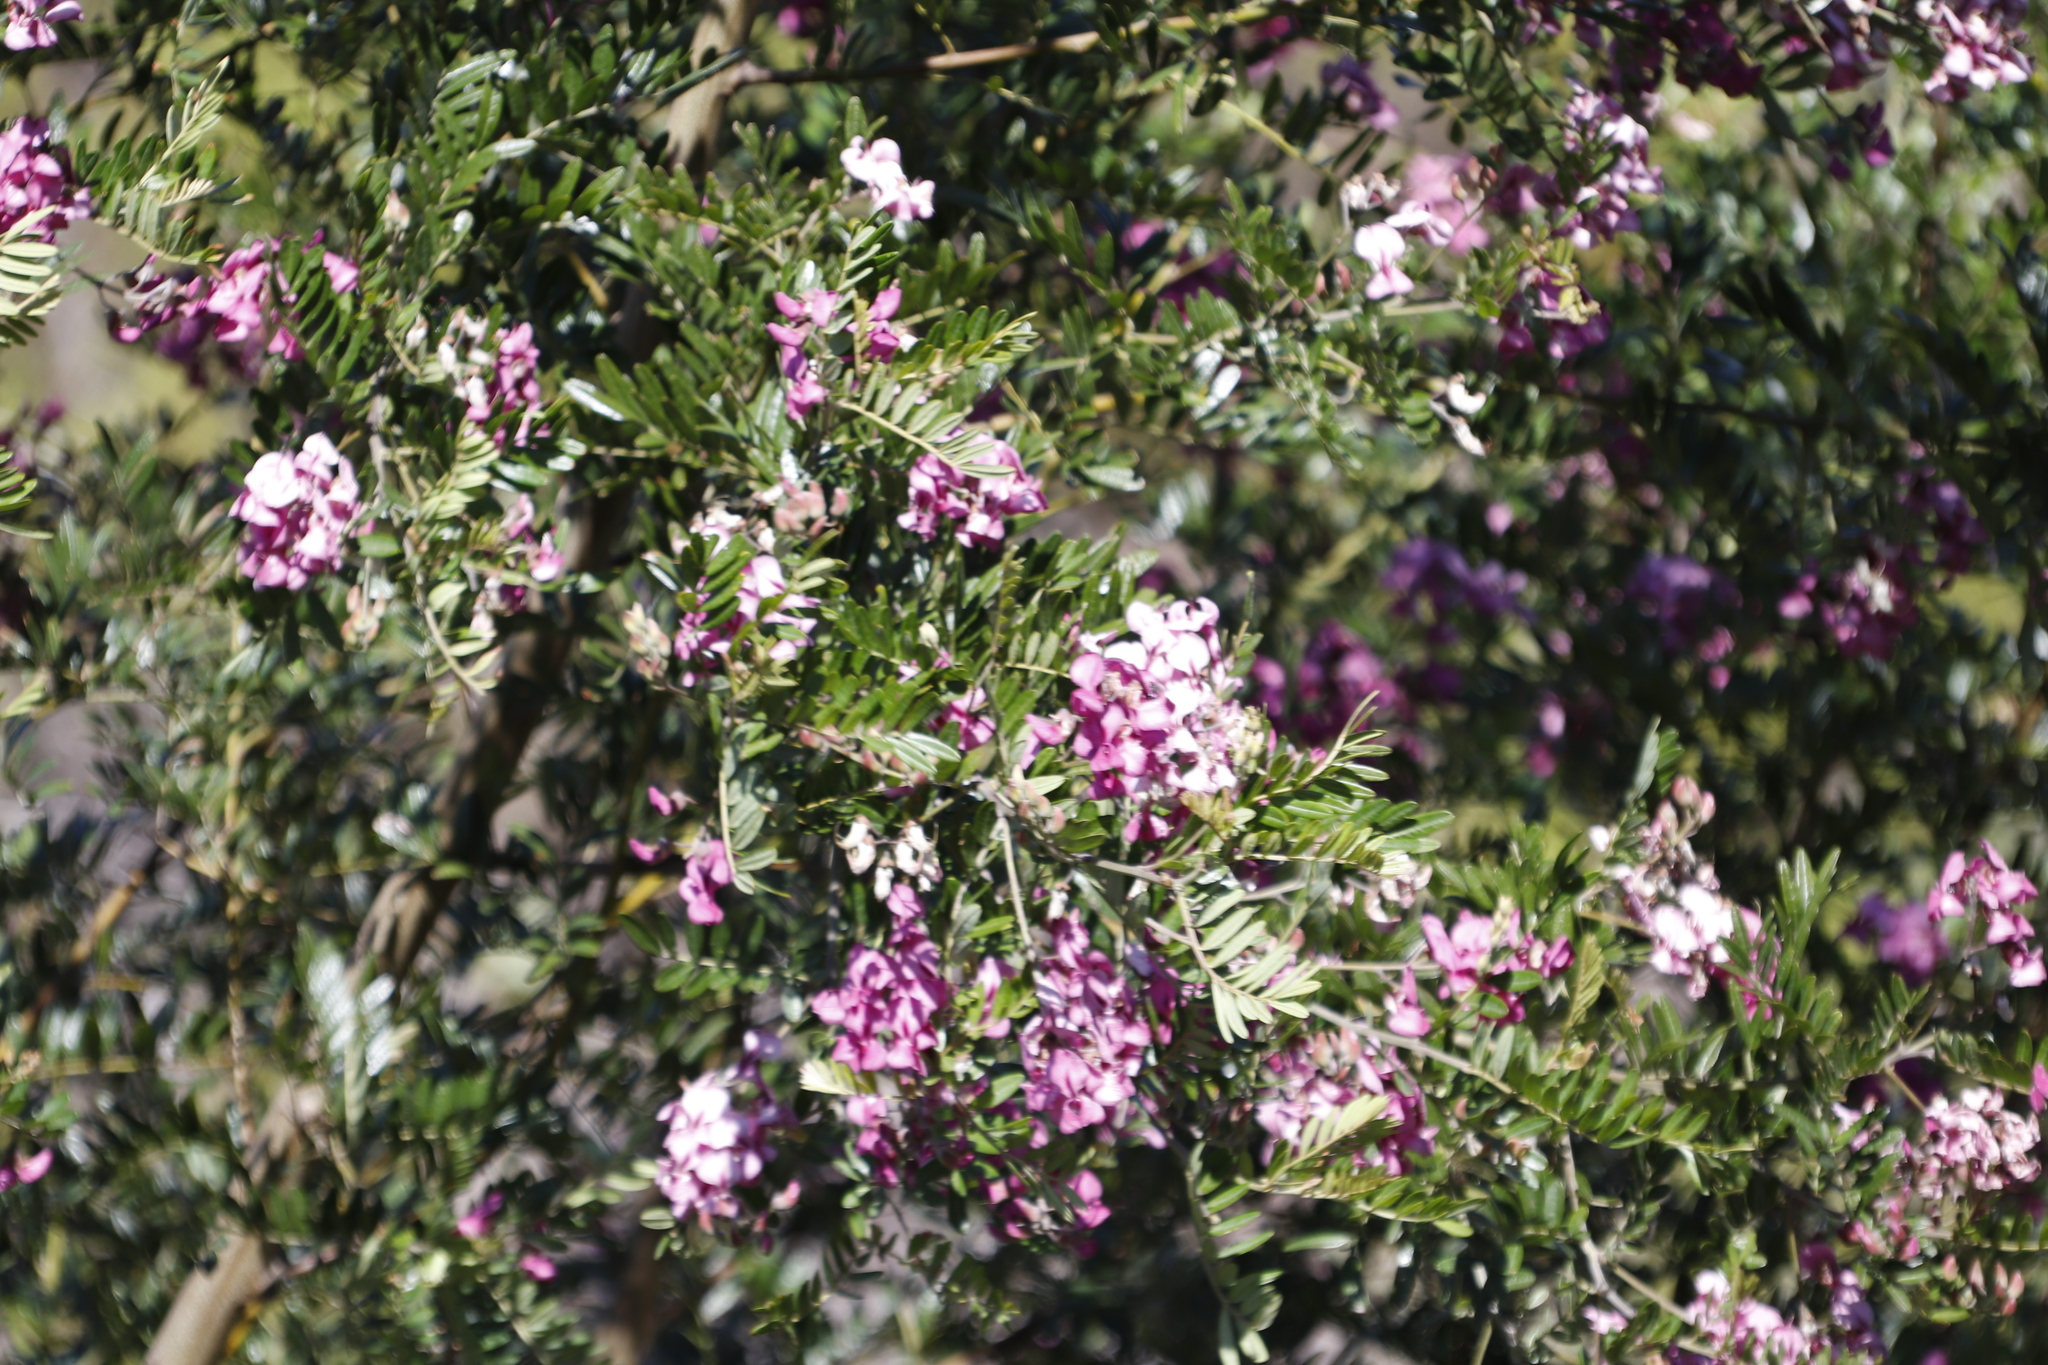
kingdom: Plantae
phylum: Tracheophyta
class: Magnoliopsida
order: Fabales
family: Fabaceae
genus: Virgilia
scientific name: Virgilia oroboides
